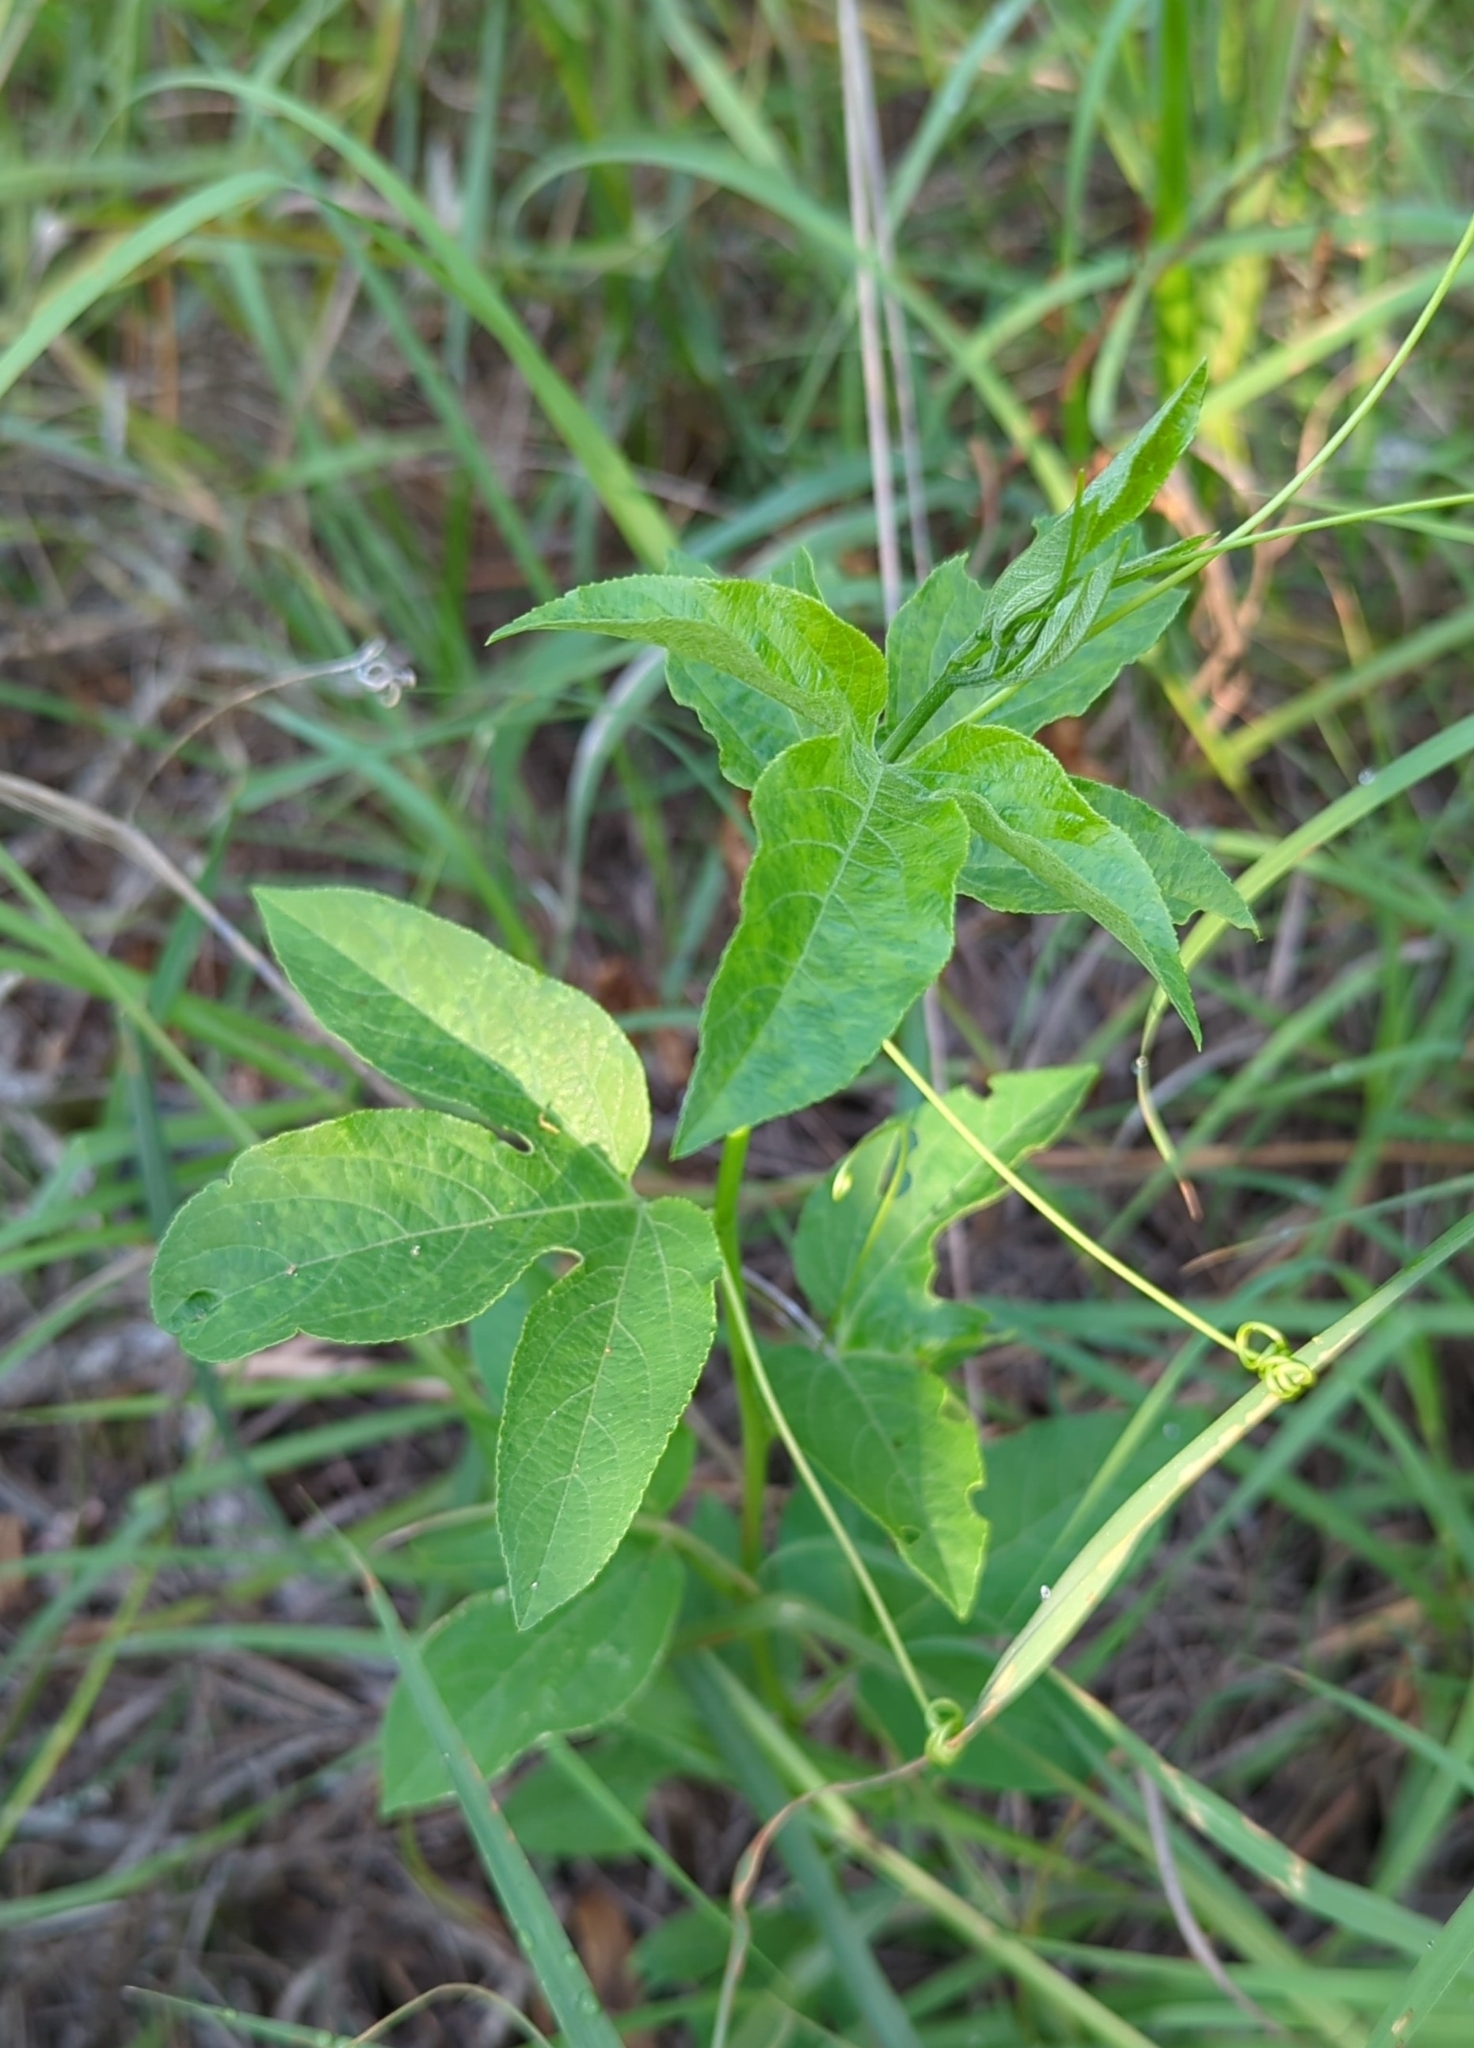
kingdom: Plantae
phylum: Tracheophyta
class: Magnoliopsida
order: Malpighiales
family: Passifloraceae
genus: Passiflora
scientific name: Passiflora incarnata
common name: Apricot-vine
